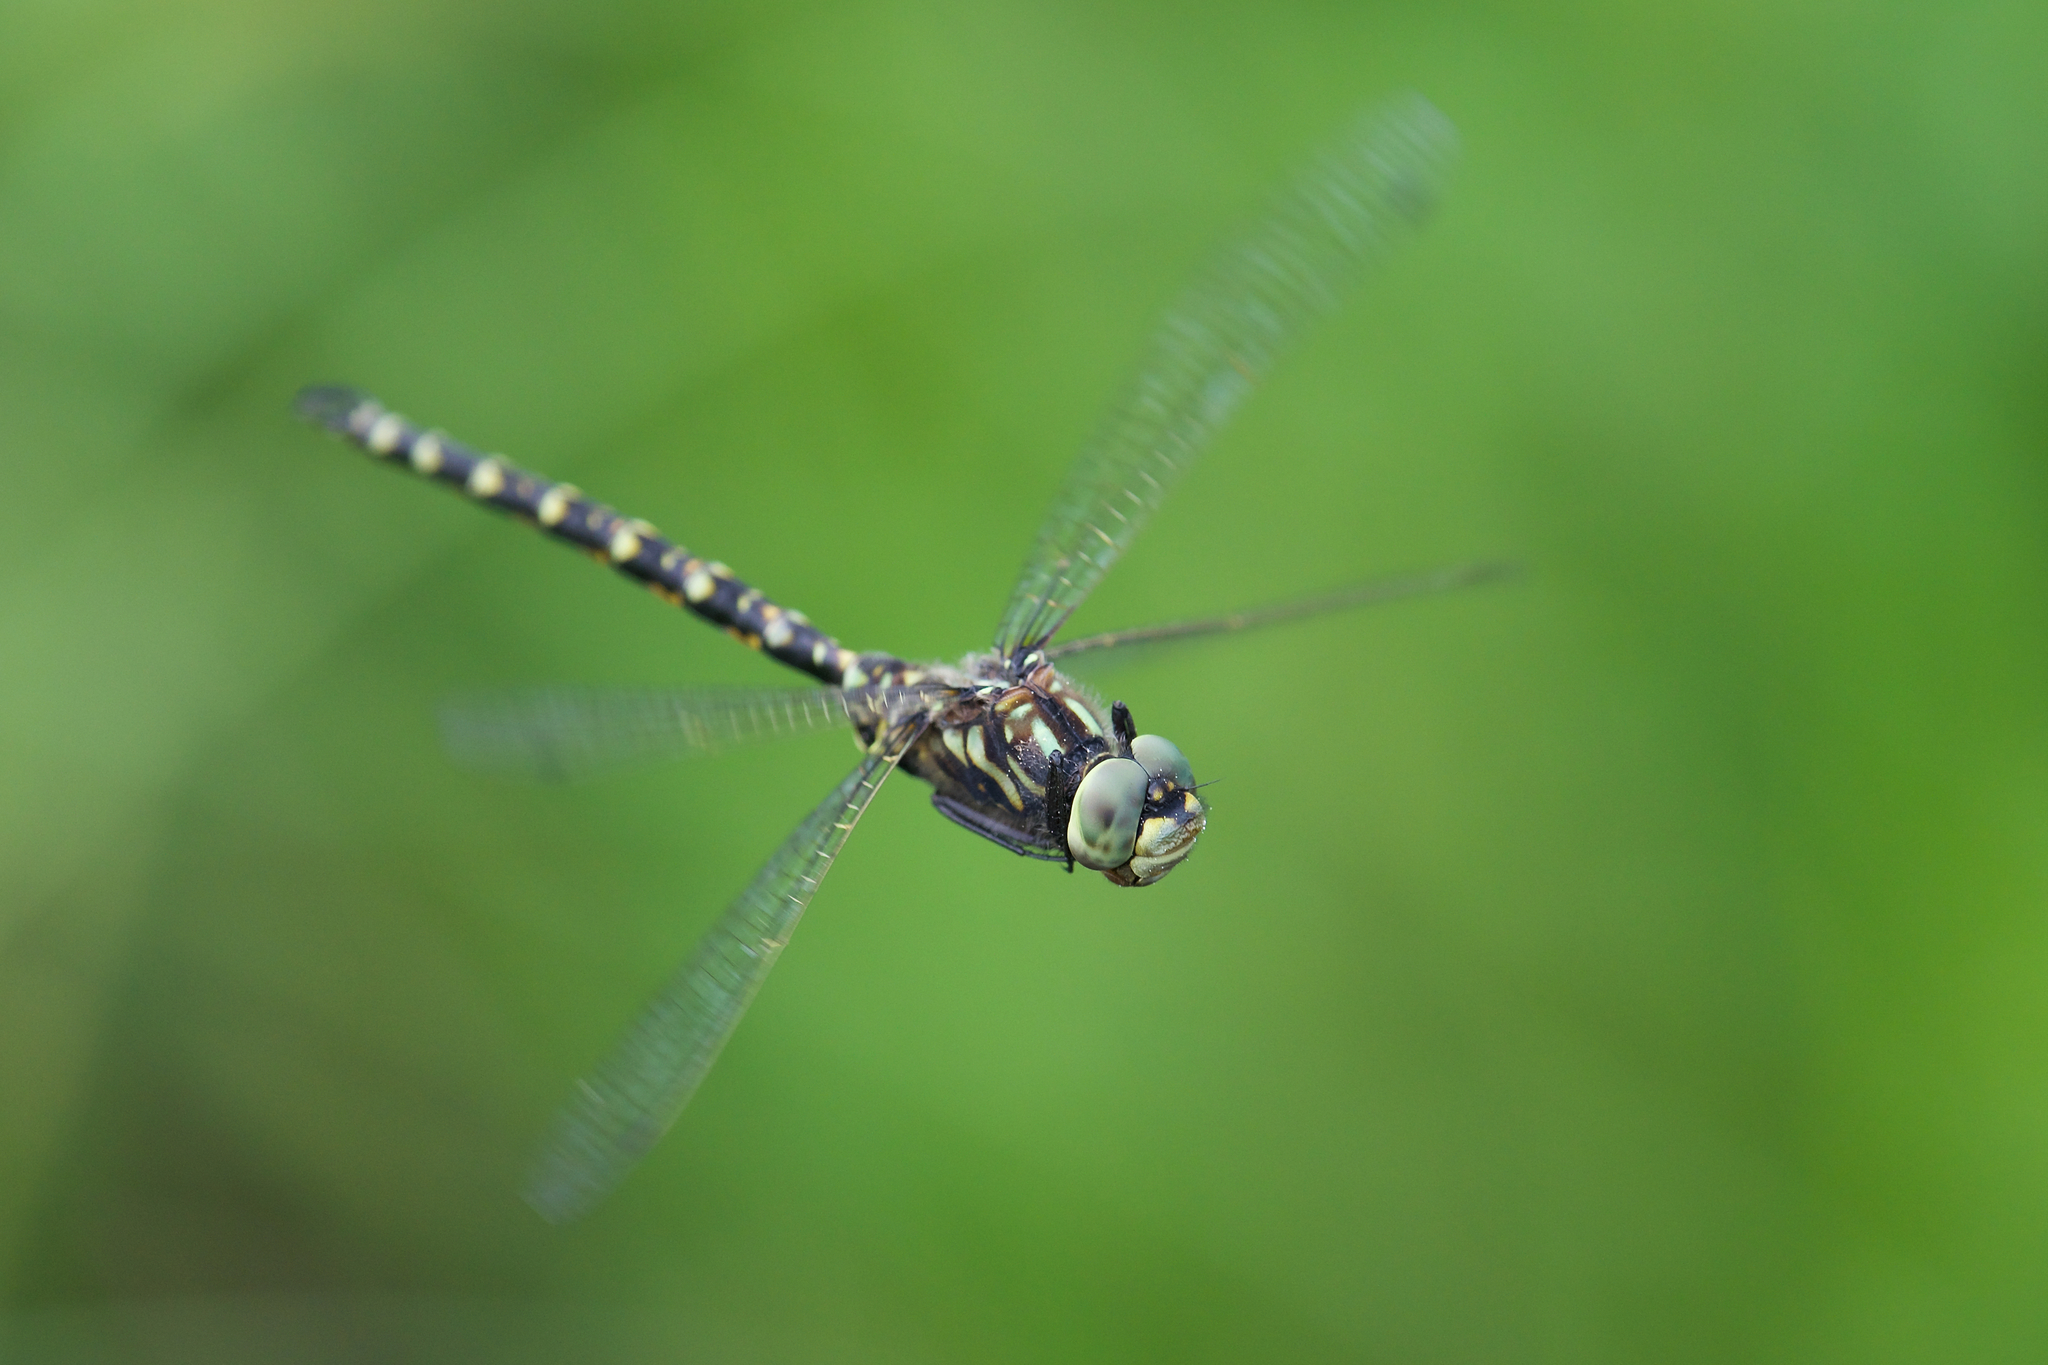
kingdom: Animalia
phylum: Arthropoda
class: Insecta
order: Odonata
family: Aeshnidae
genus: Gomphaeschna
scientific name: Gomphaeschna furcillata
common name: Harlequin darner
